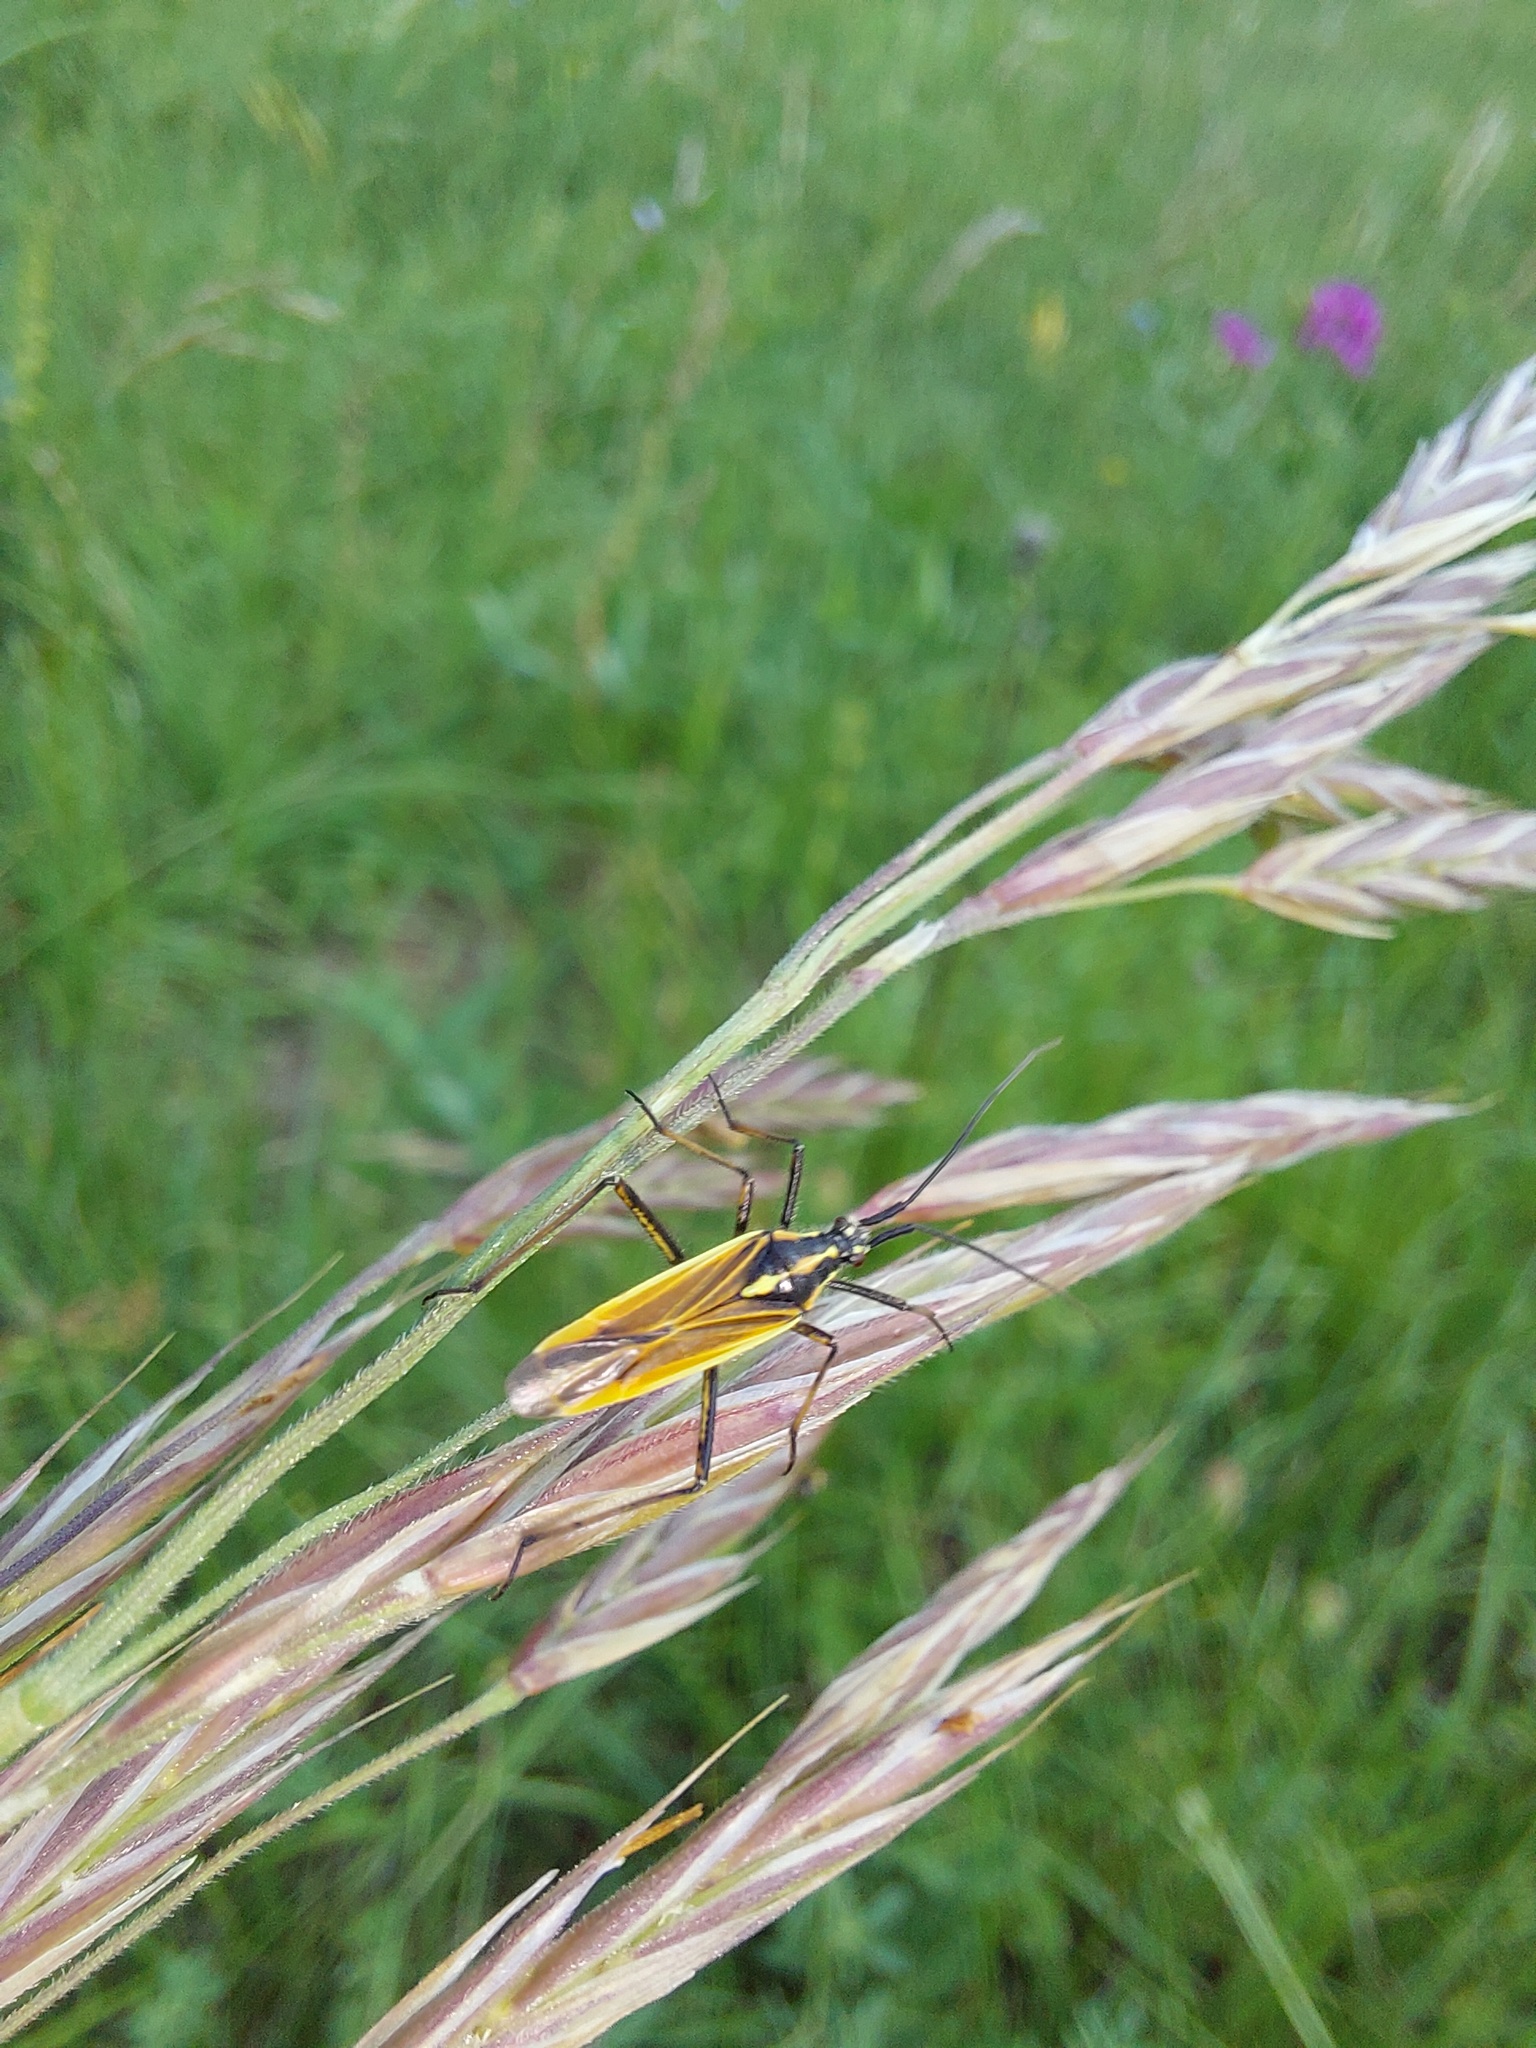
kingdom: Animalia
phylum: Arthropoda
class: Insecta
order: Hemiptera
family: Miridae
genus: Leptopterna
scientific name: Leptopterna dolabrata
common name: Meadow plant bug
